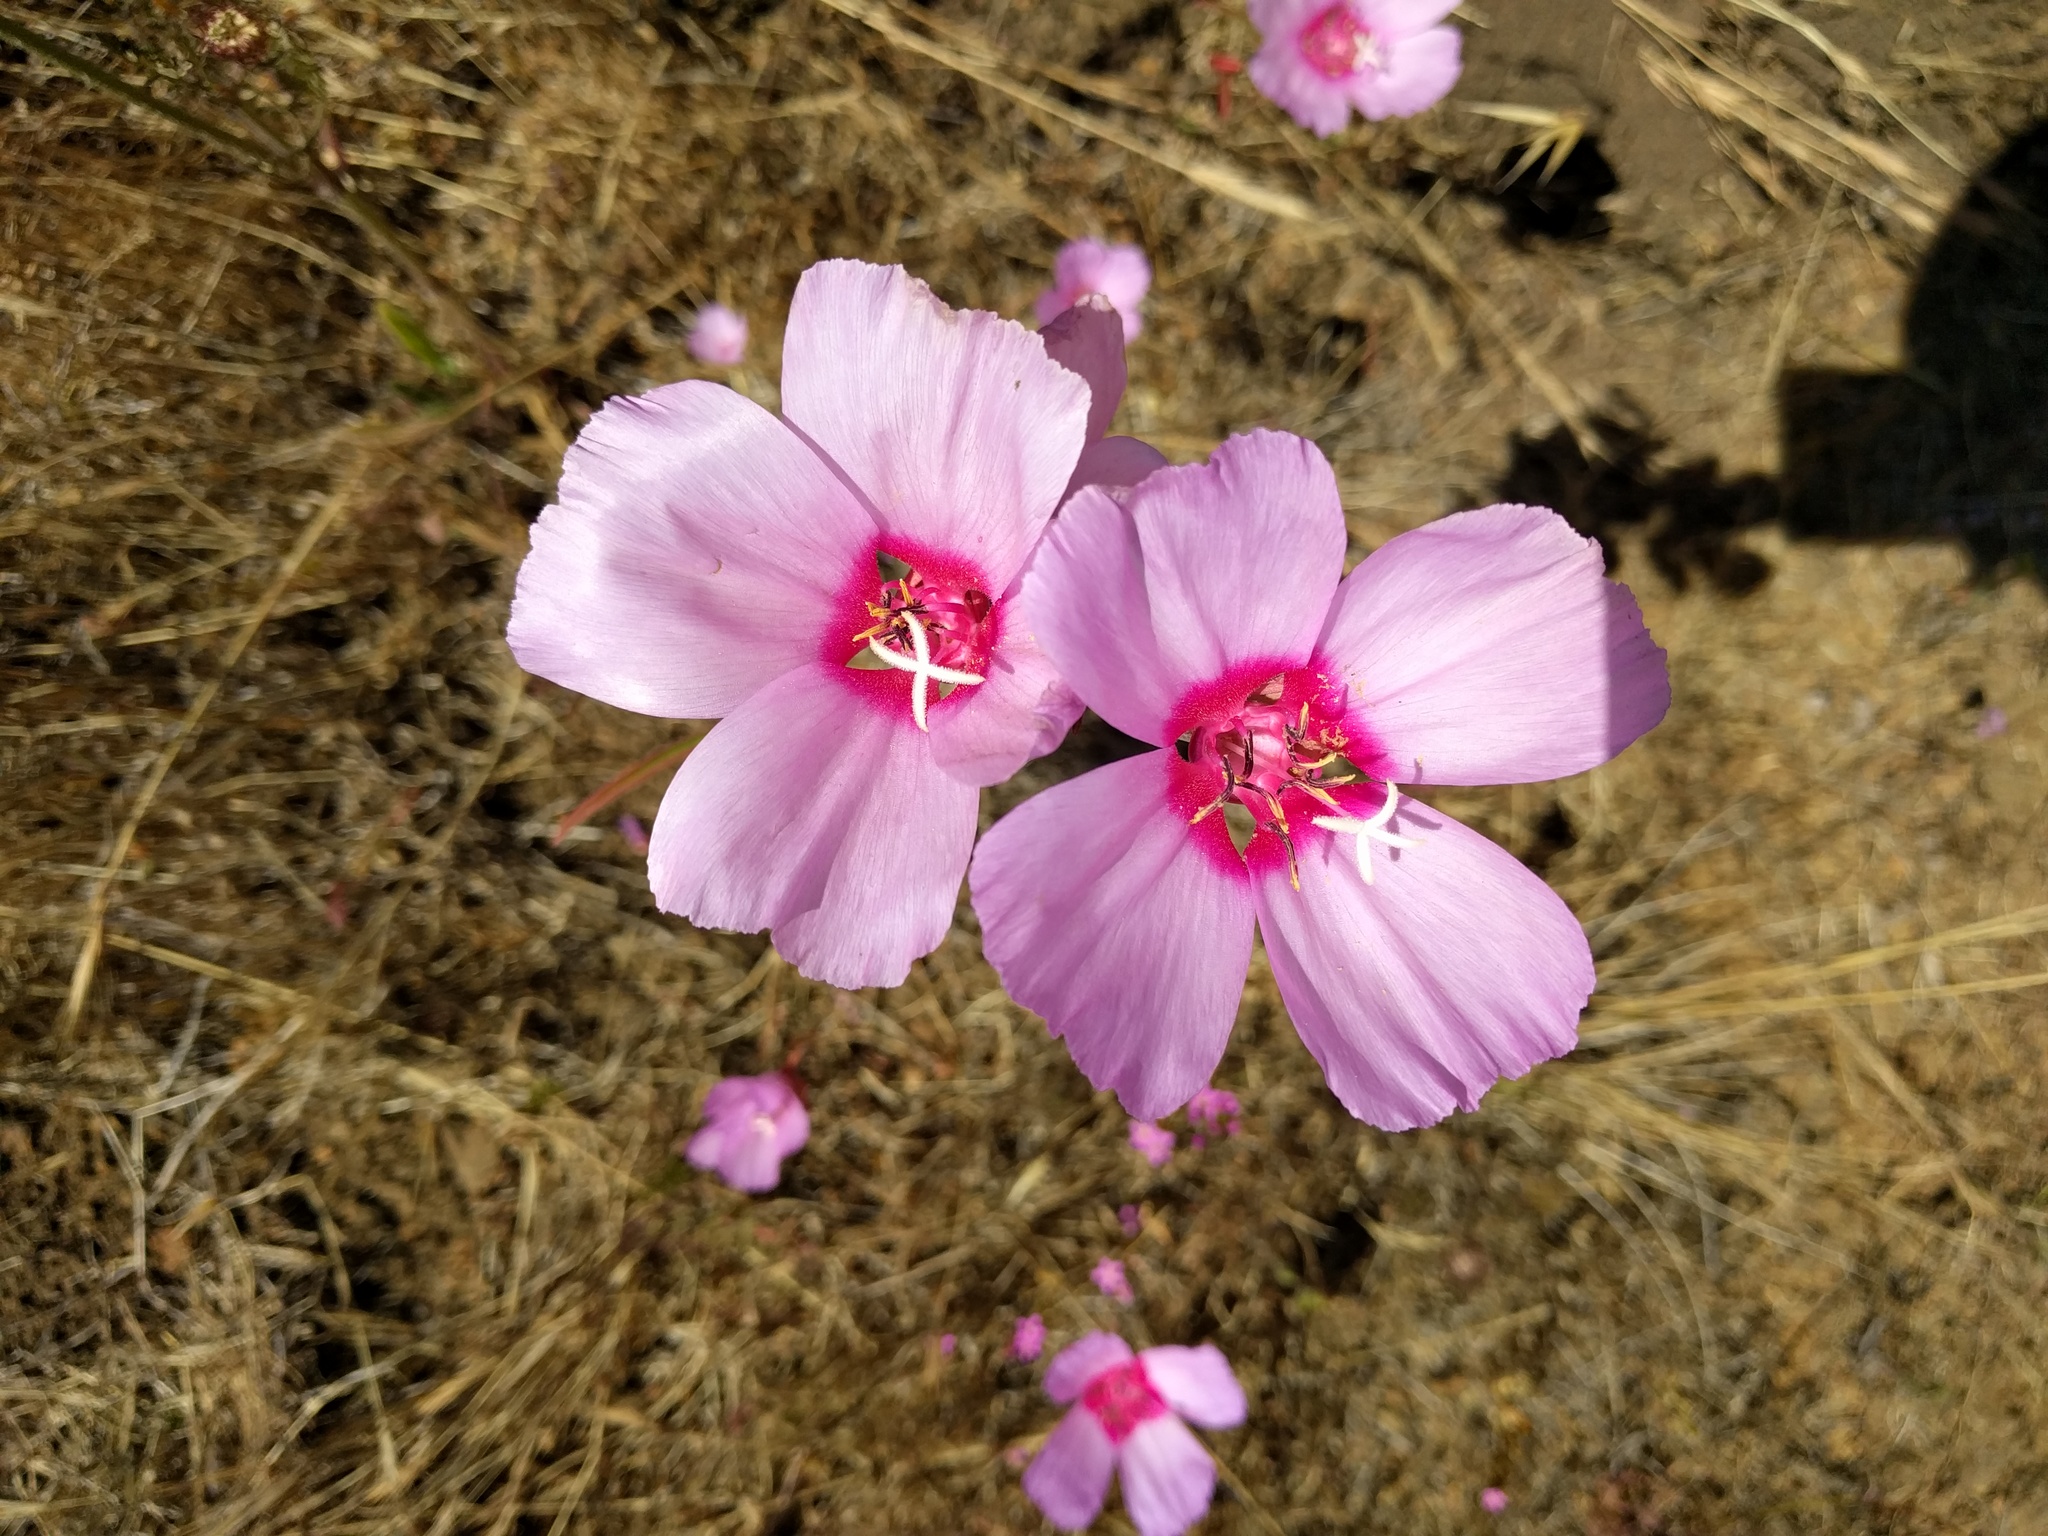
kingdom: Plantae
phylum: Tracheophyta
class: Magnoliopsida
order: Myrtales
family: Onagraceae
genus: Clarkia
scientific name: Clarkia rubicunda
